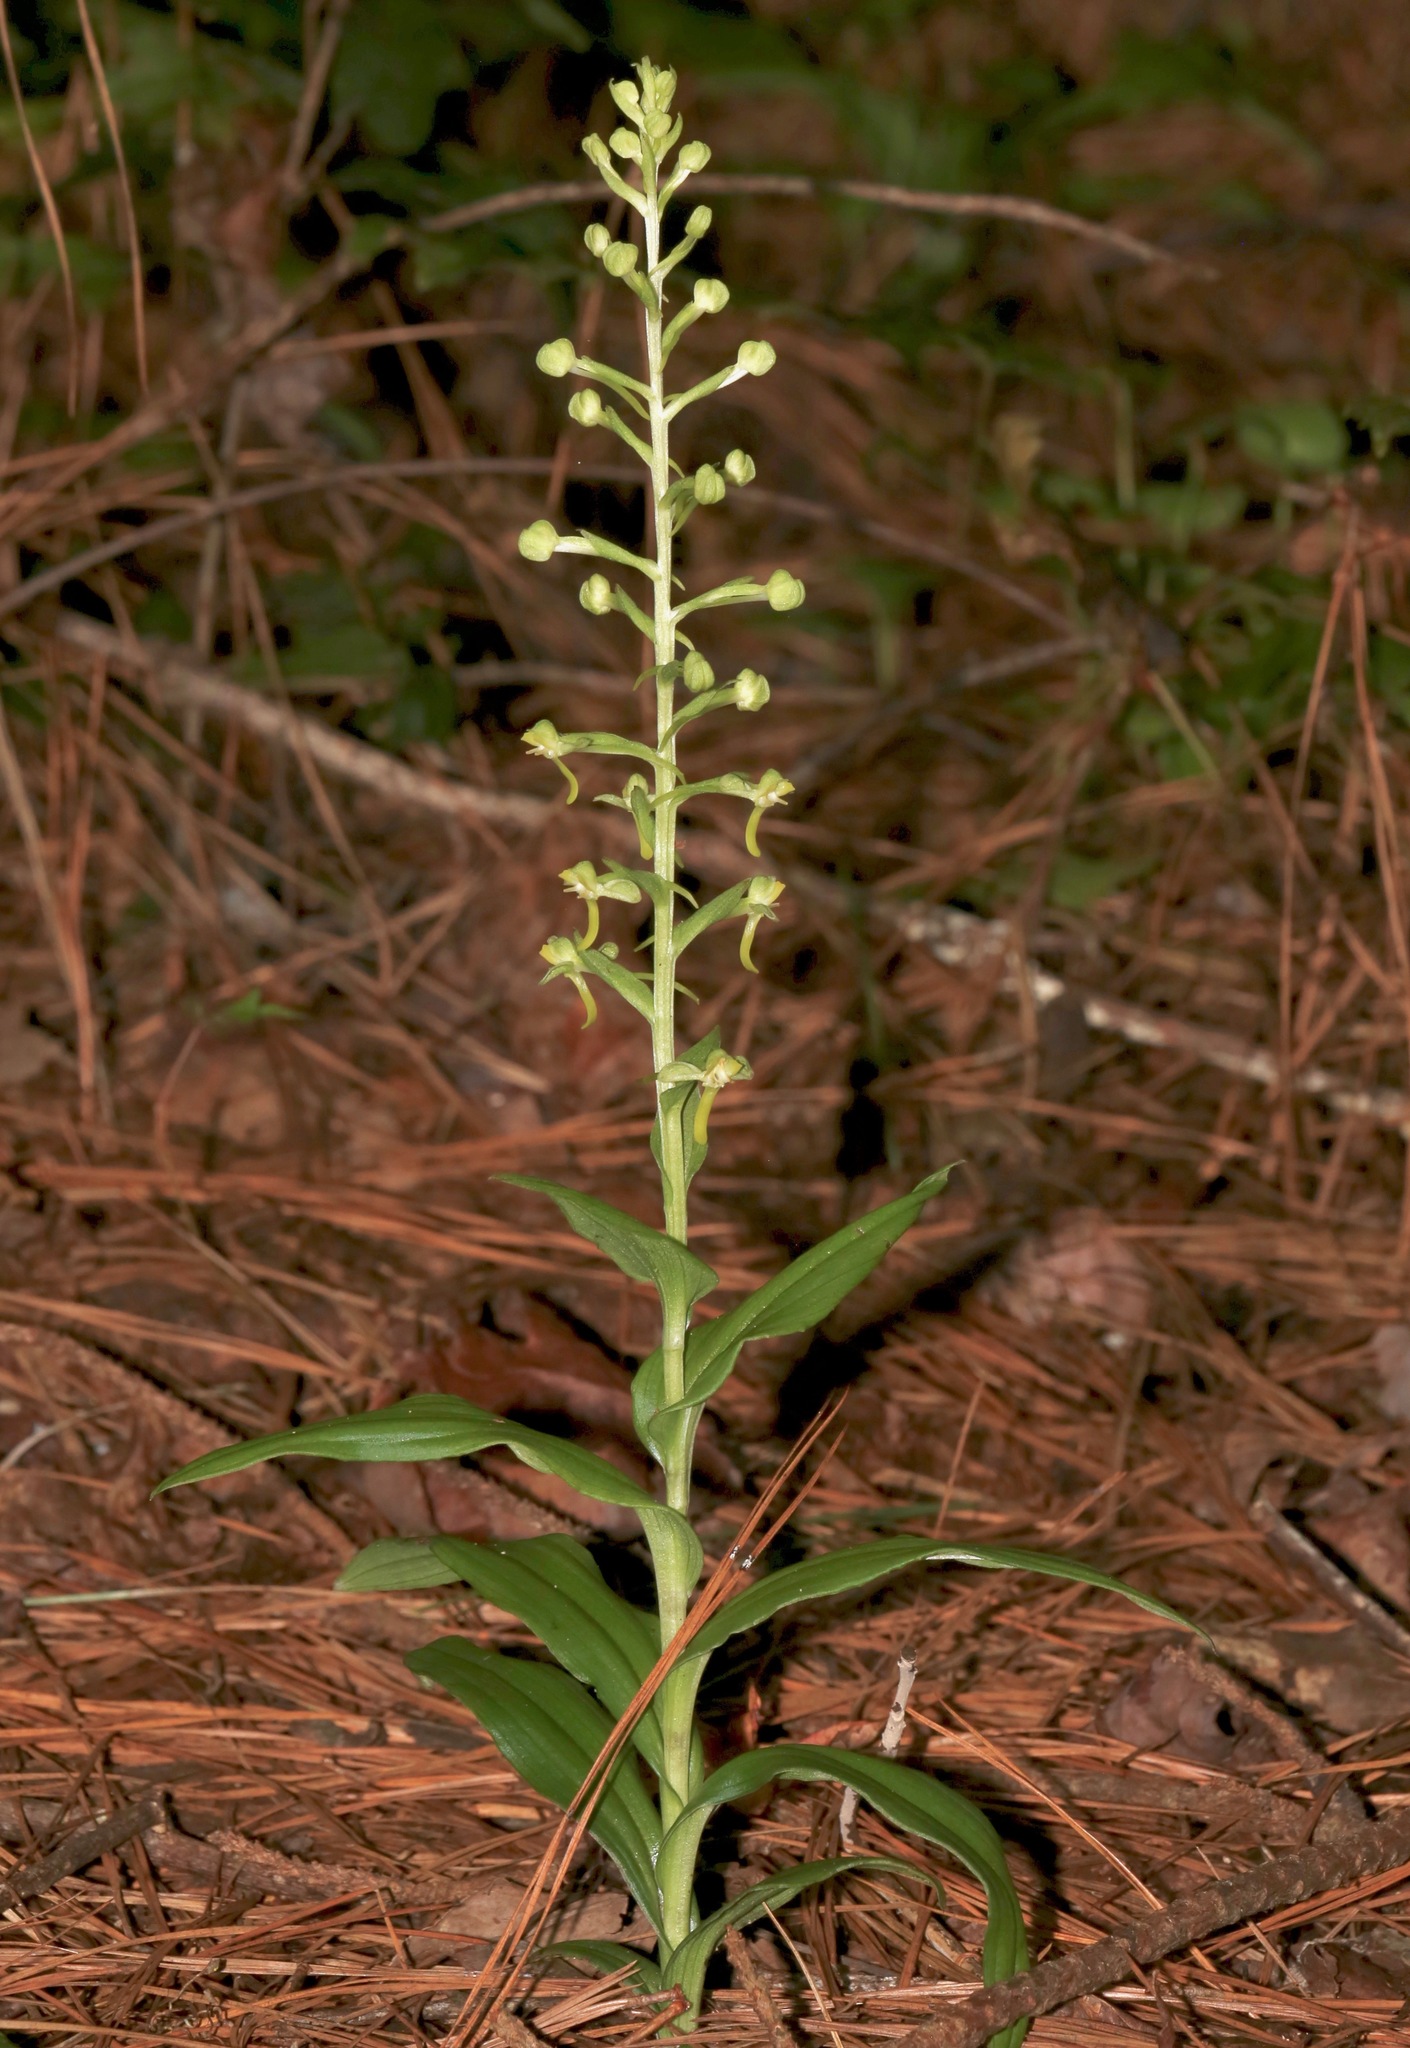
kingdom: Plantae
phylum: Tracheophyta
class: Liliopsida
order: Asparagales
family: Orchidaceae
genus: Habenaria
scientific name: Habenaria floribunda
